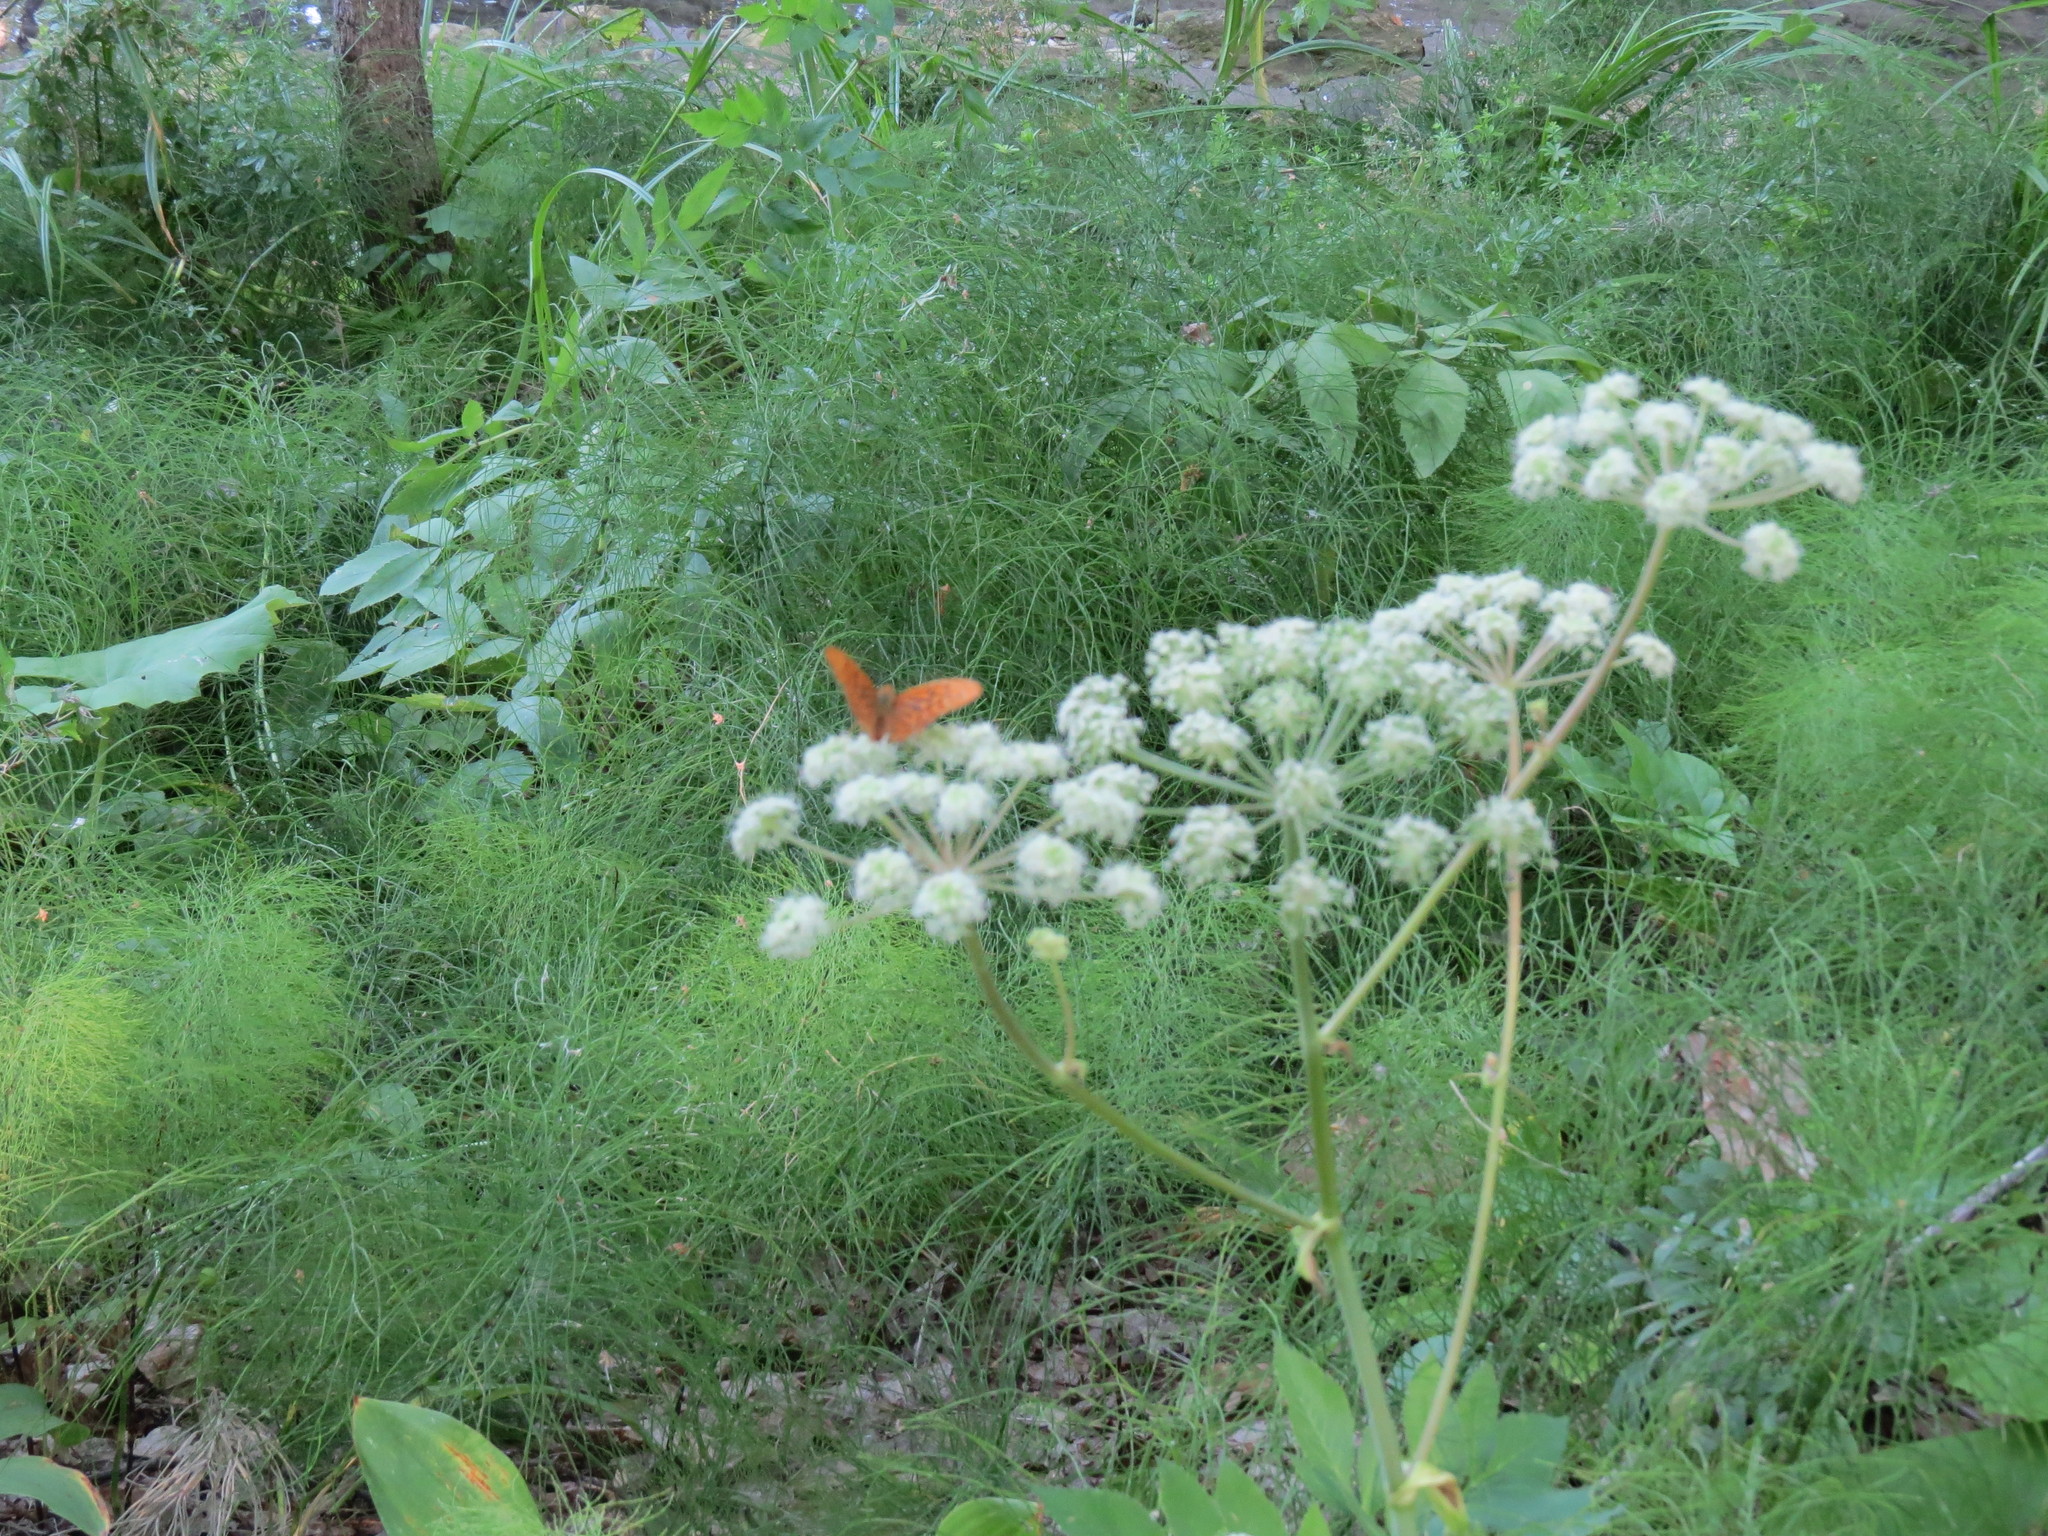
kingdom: Animalia
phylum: Arthropoda
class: Insecta
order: Lepidoptera
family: Nymphalidae
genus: Argynnis
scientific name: Argynnis paphia
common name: Silver-washed fritillary
